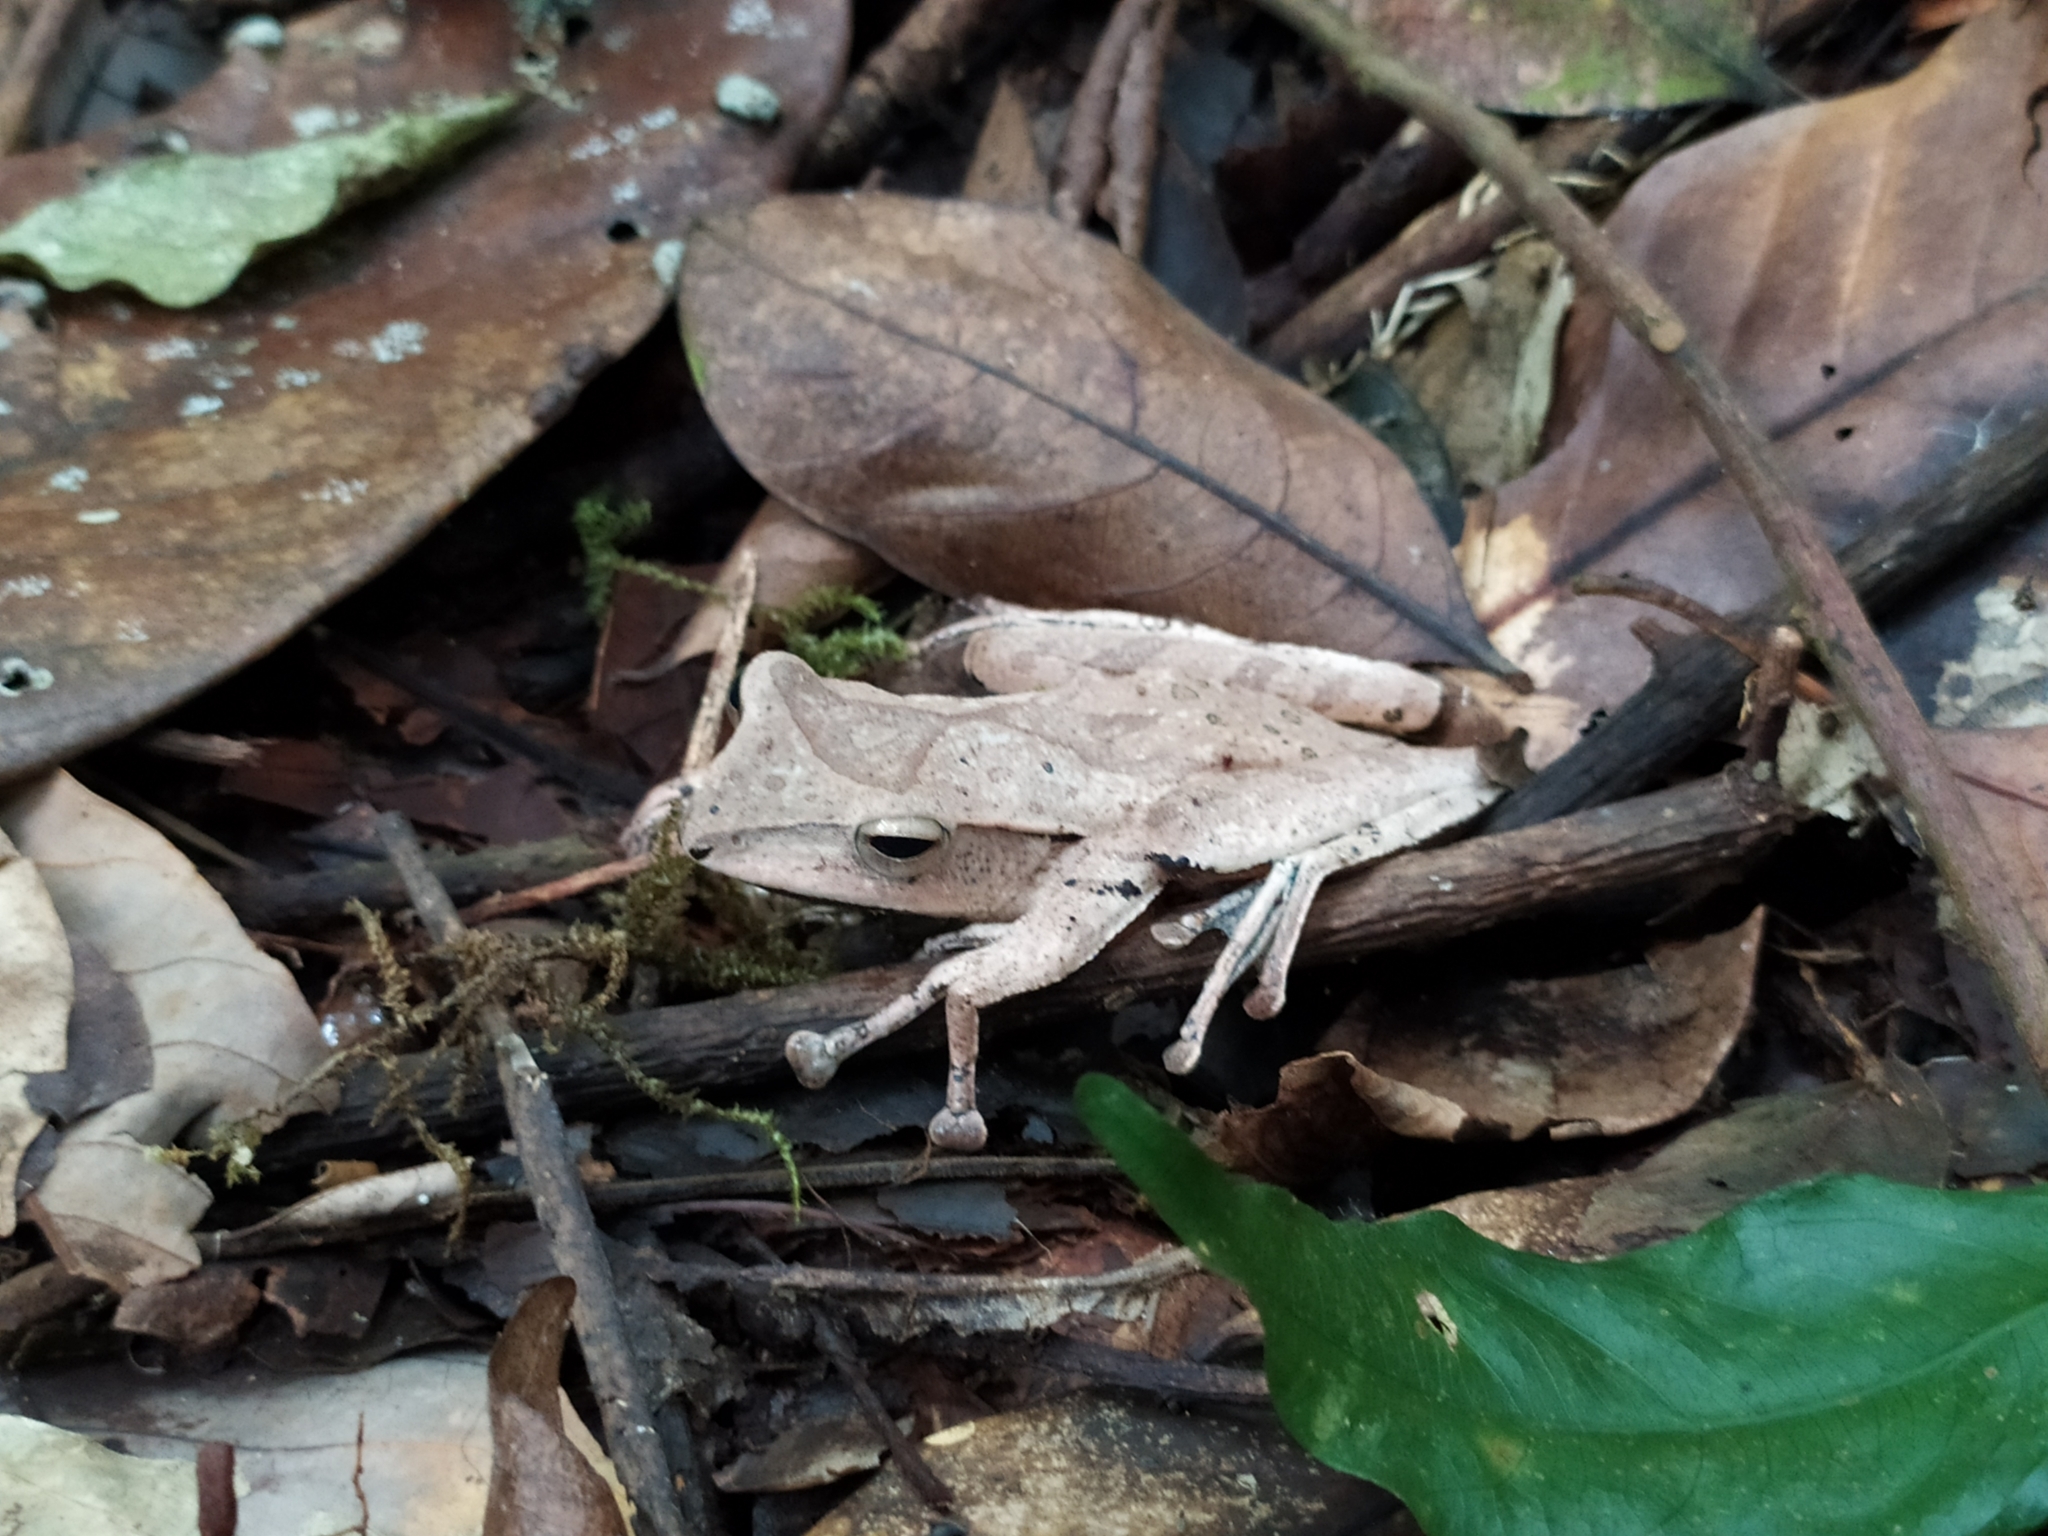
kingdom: Animalia
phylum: Chordata
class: Amphibia
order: Anura
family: Rhacophoridae
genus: Polypedates
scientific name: Polypedates pseudocruciger
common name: False hour-glass tree frog
